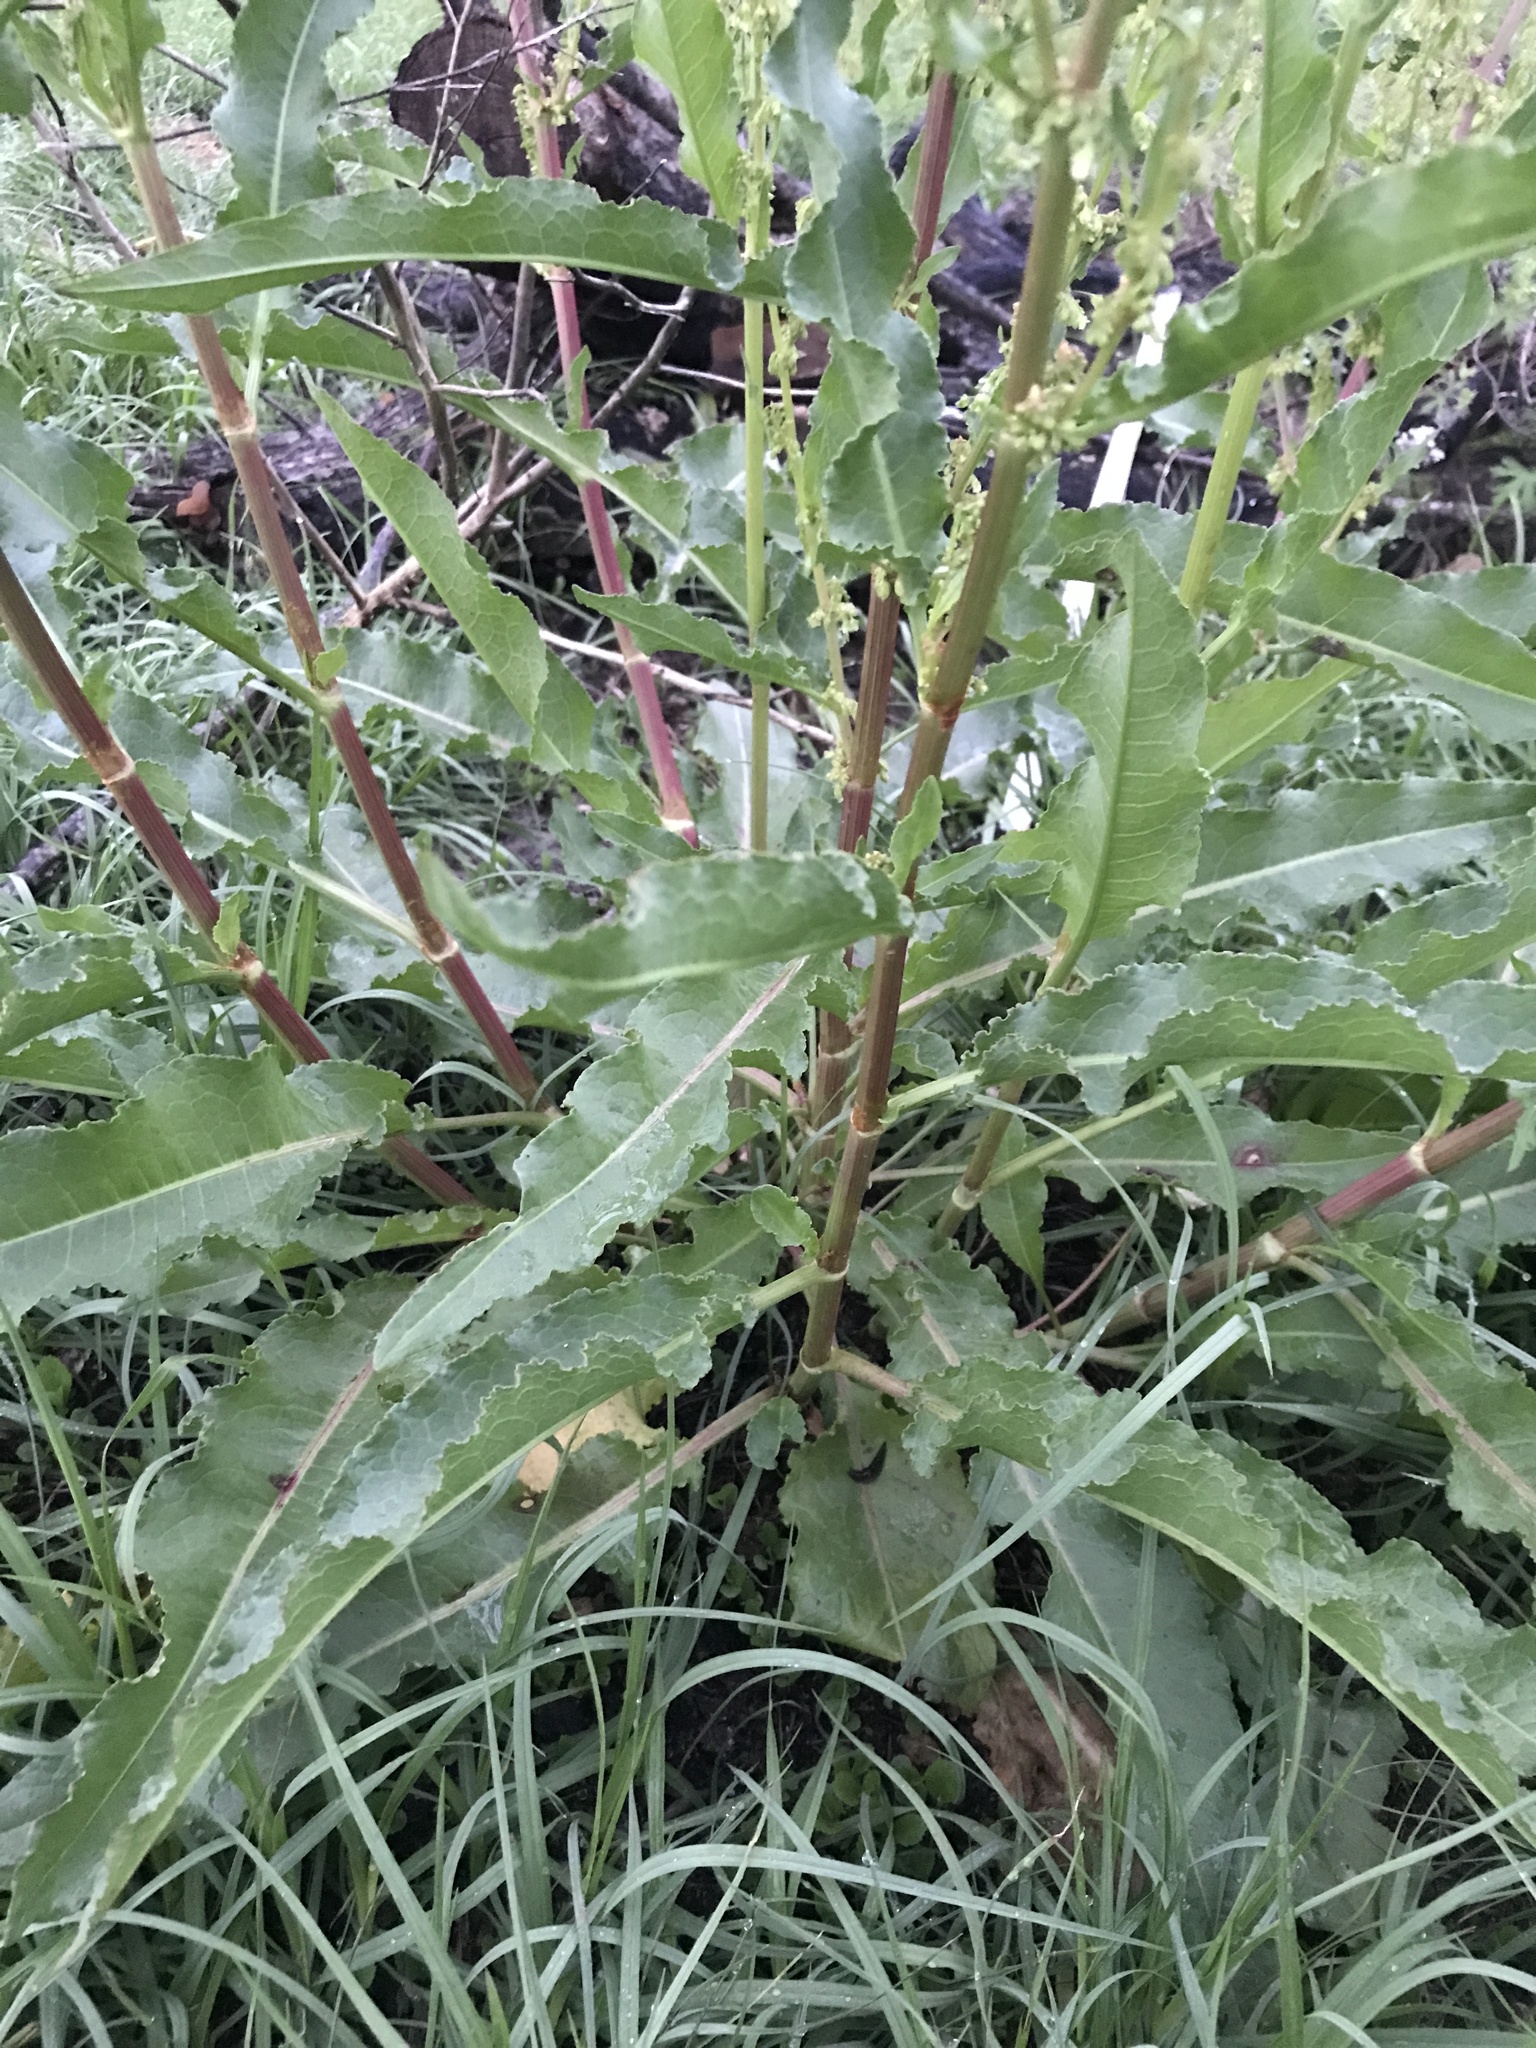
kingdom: Plantae
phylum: Tracheophyta
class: Magnoliopsida
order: Caryophyllales
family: Polygonaceae
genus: Rumex
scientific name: Rumex crispus
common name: Curled dock
